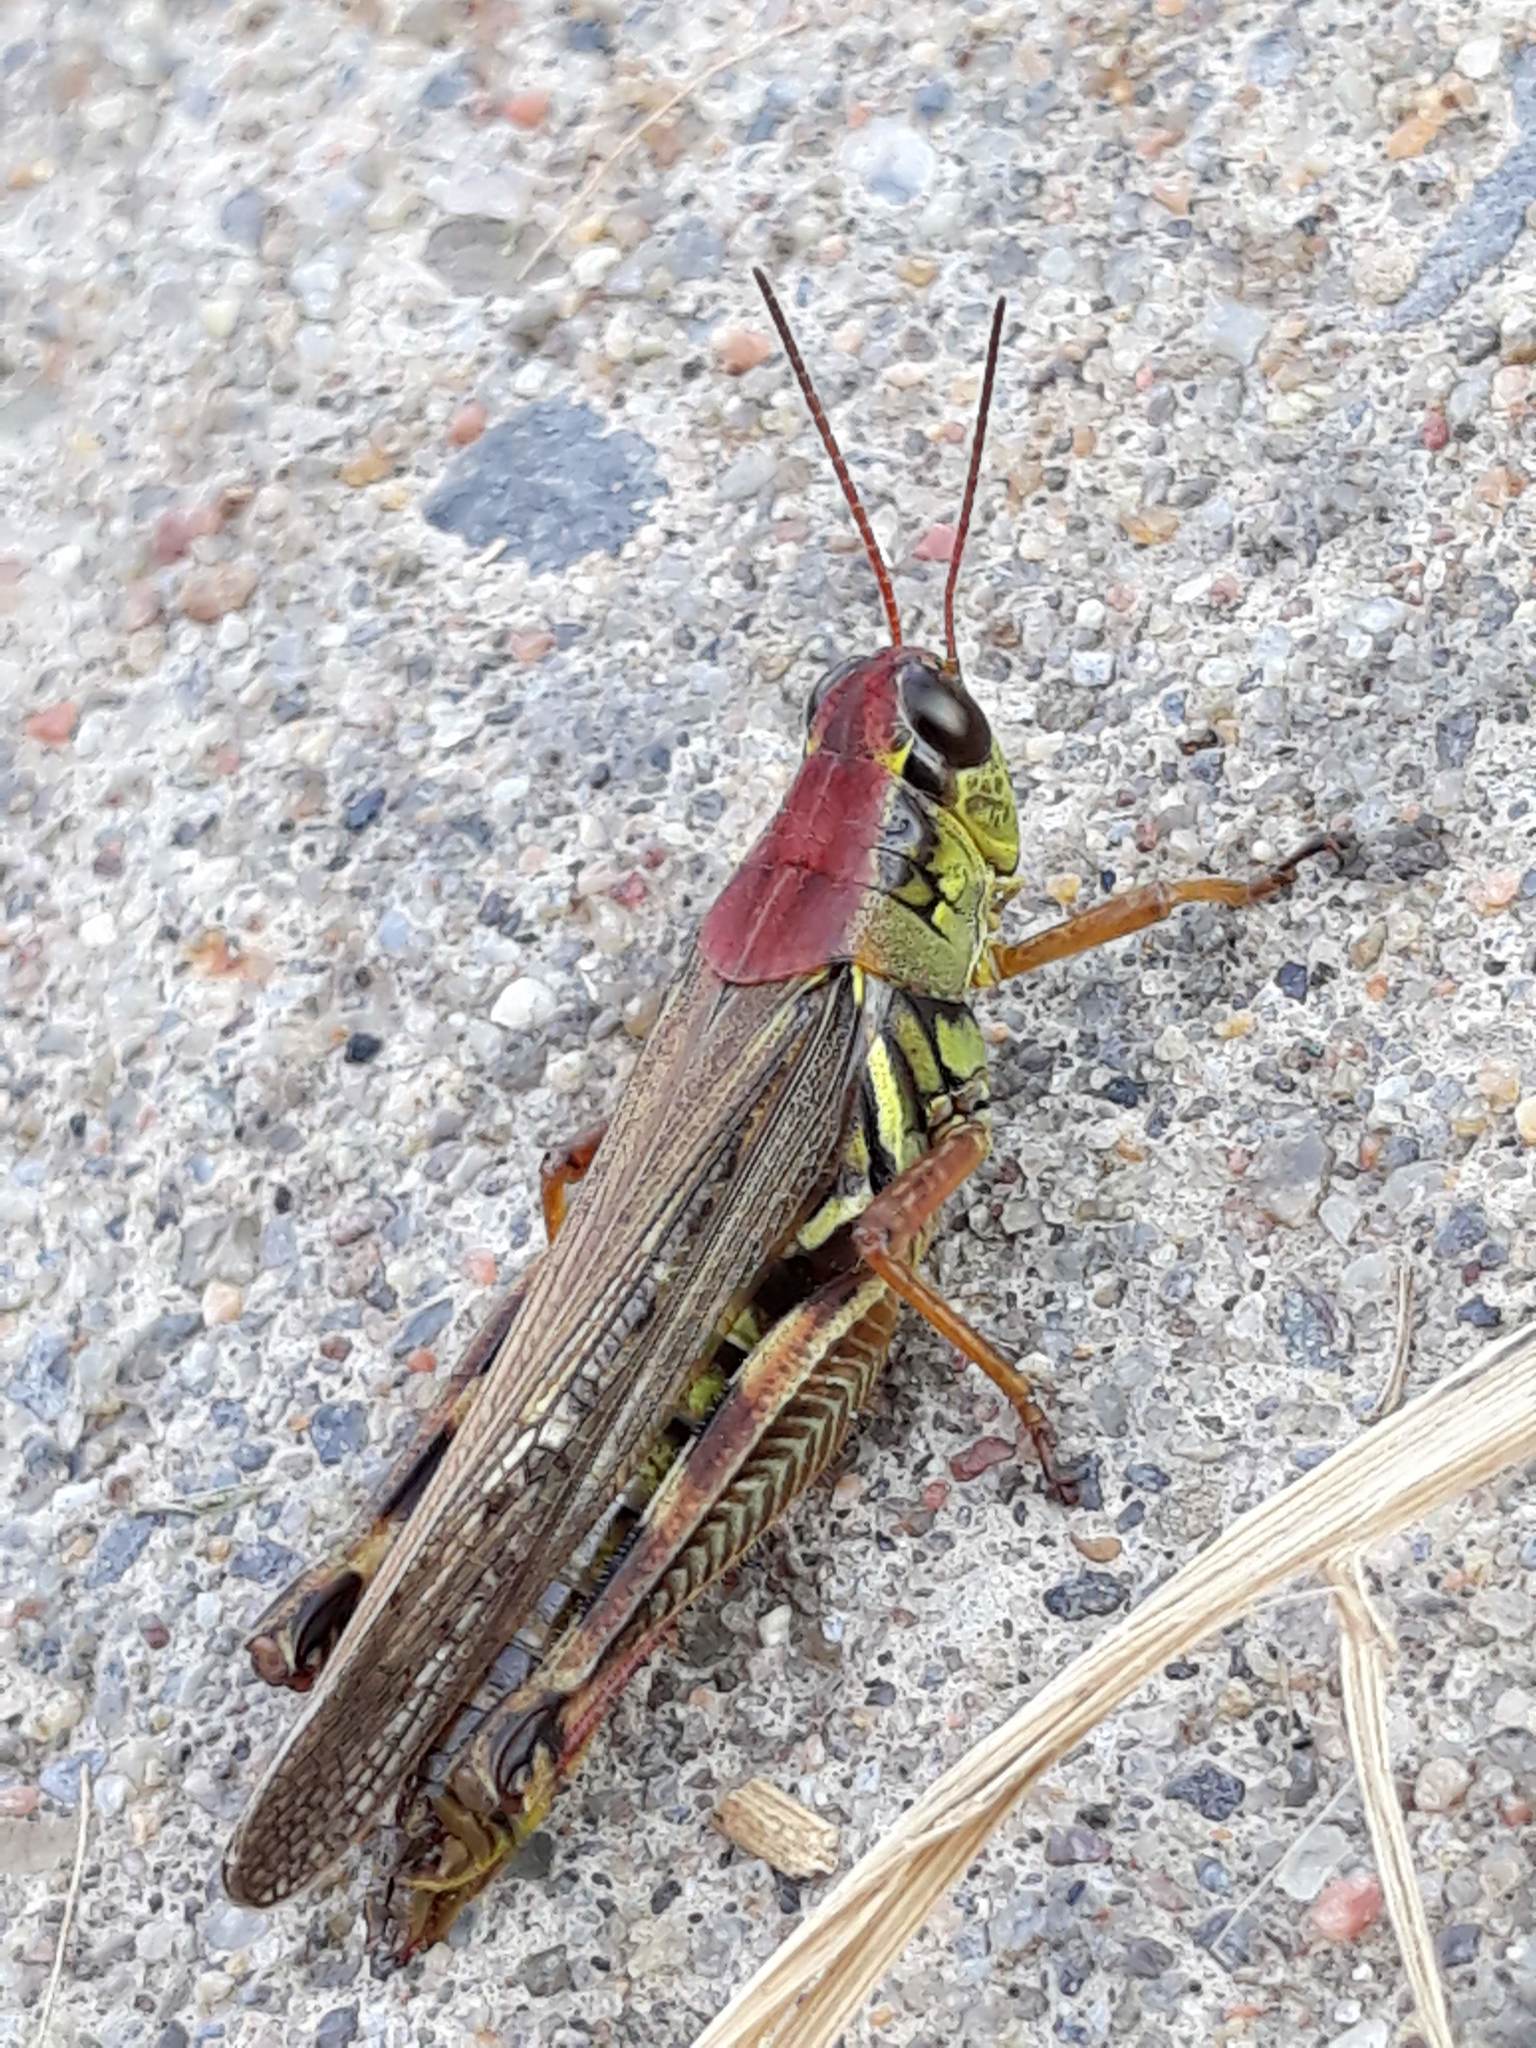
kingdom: Animalia
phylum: Arthropoda
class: Insecta
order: Orthoptera
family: Acrididae
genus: Melanoplus
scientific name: Melanoplus femurrubrum
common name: Red-legged grasshopper
